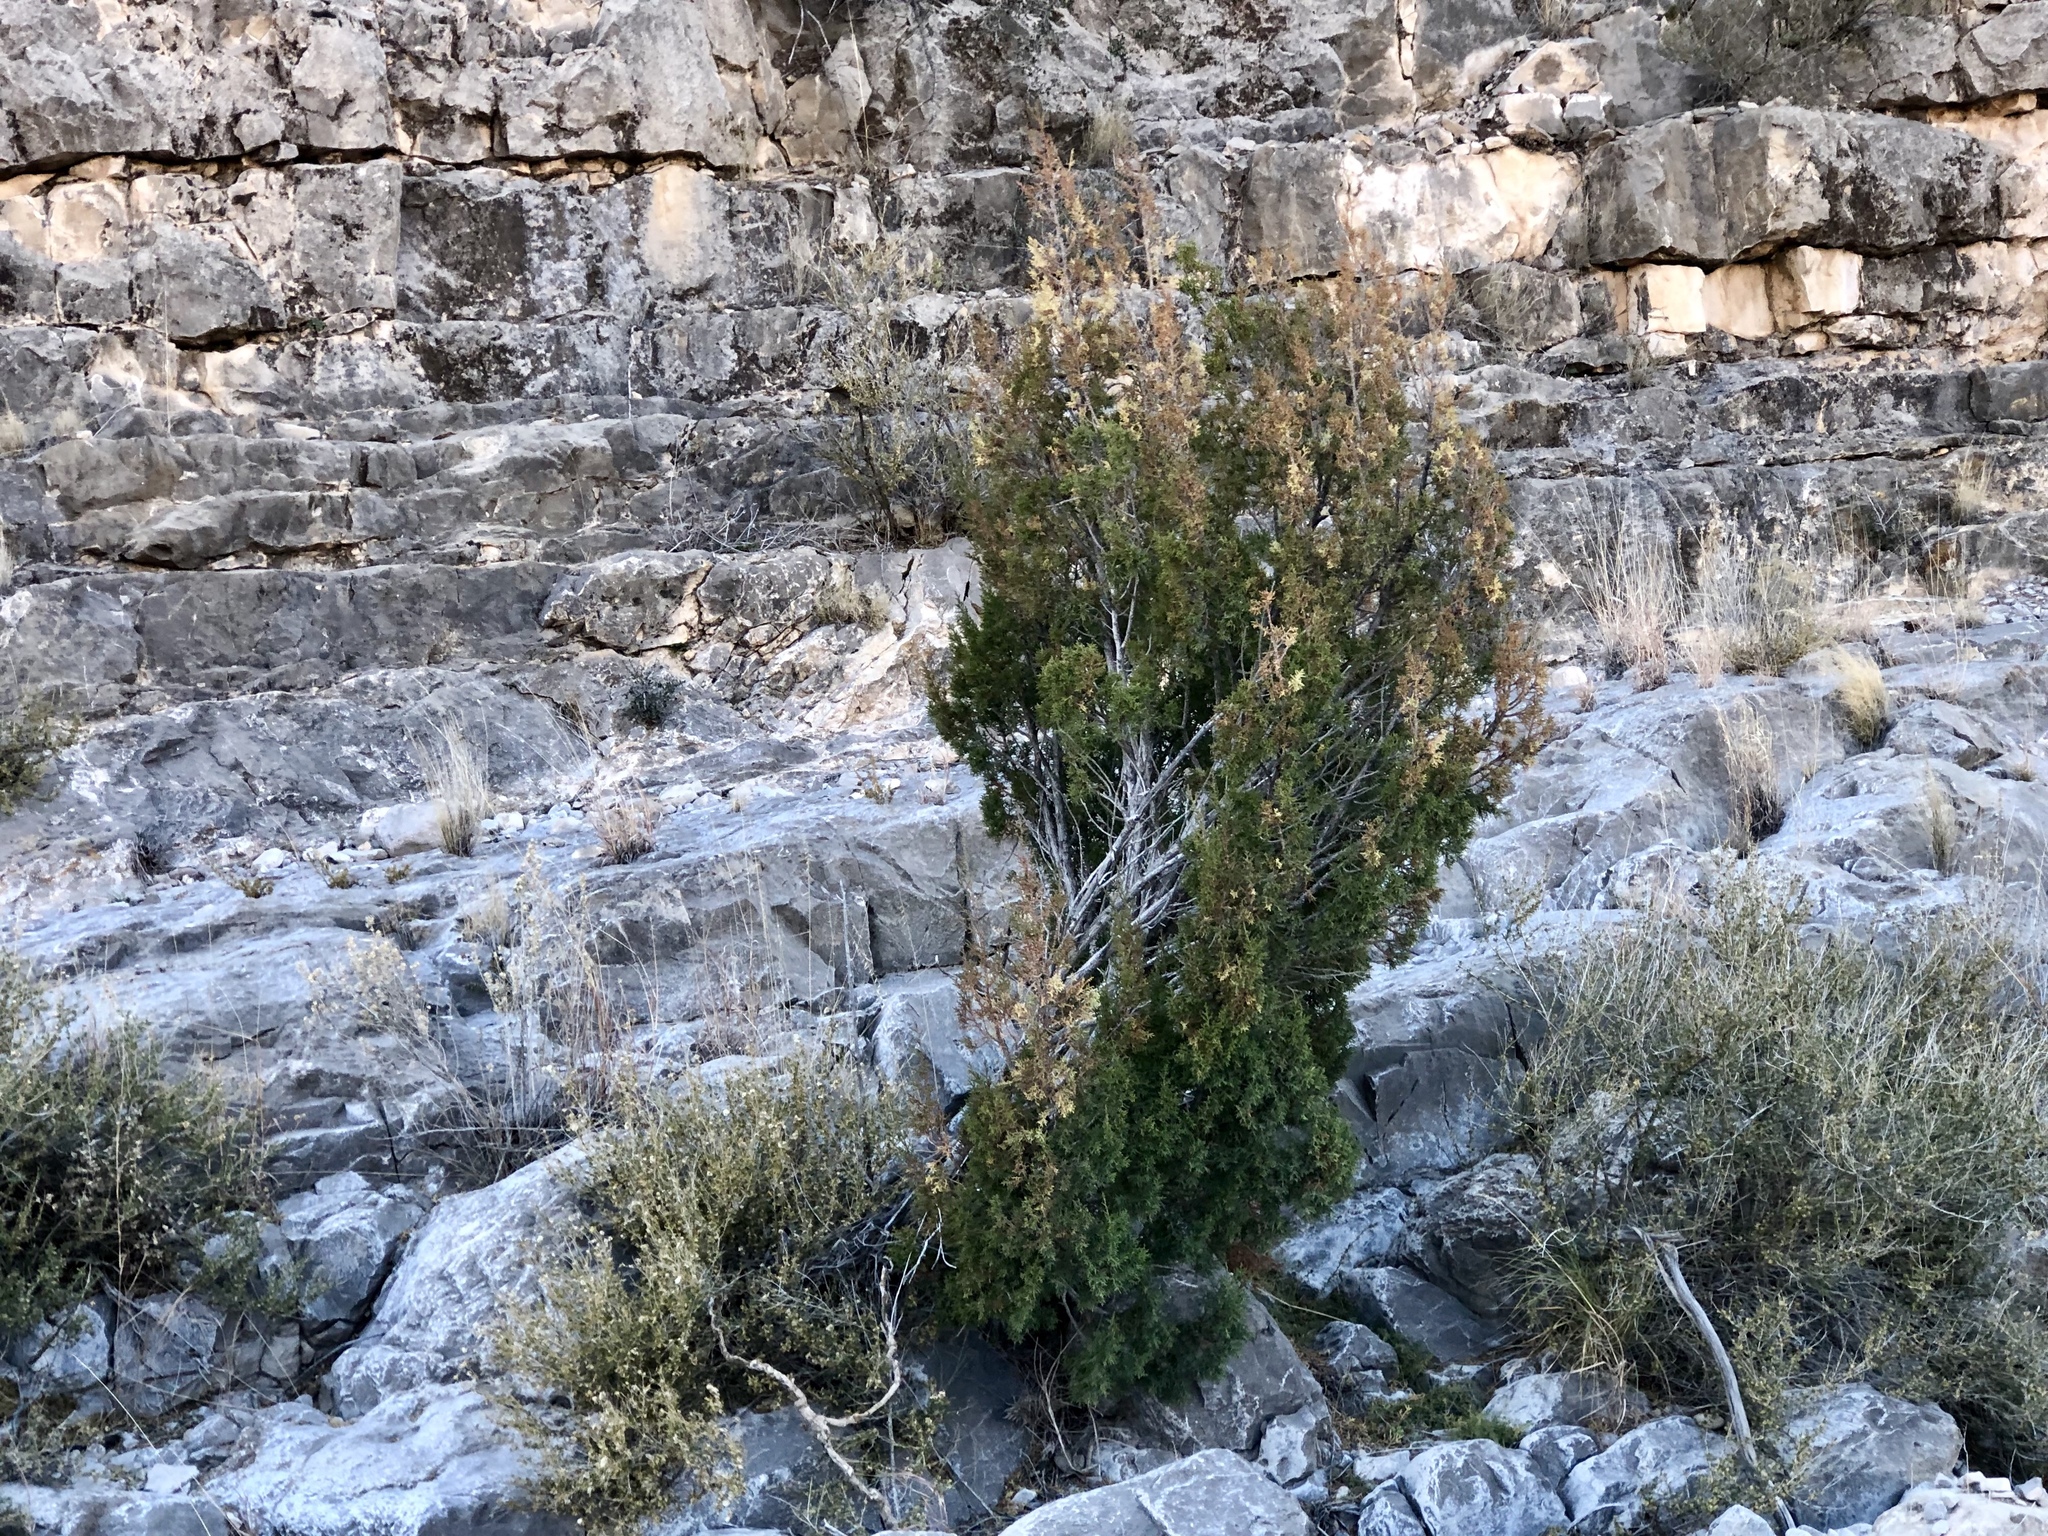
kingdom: Plantae
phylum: Tracheophyta
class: Pinopsida
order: Pinales
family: Cupressaceae
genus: Juniperus
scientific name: Juniperus monosperma
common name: One-seed juniper
